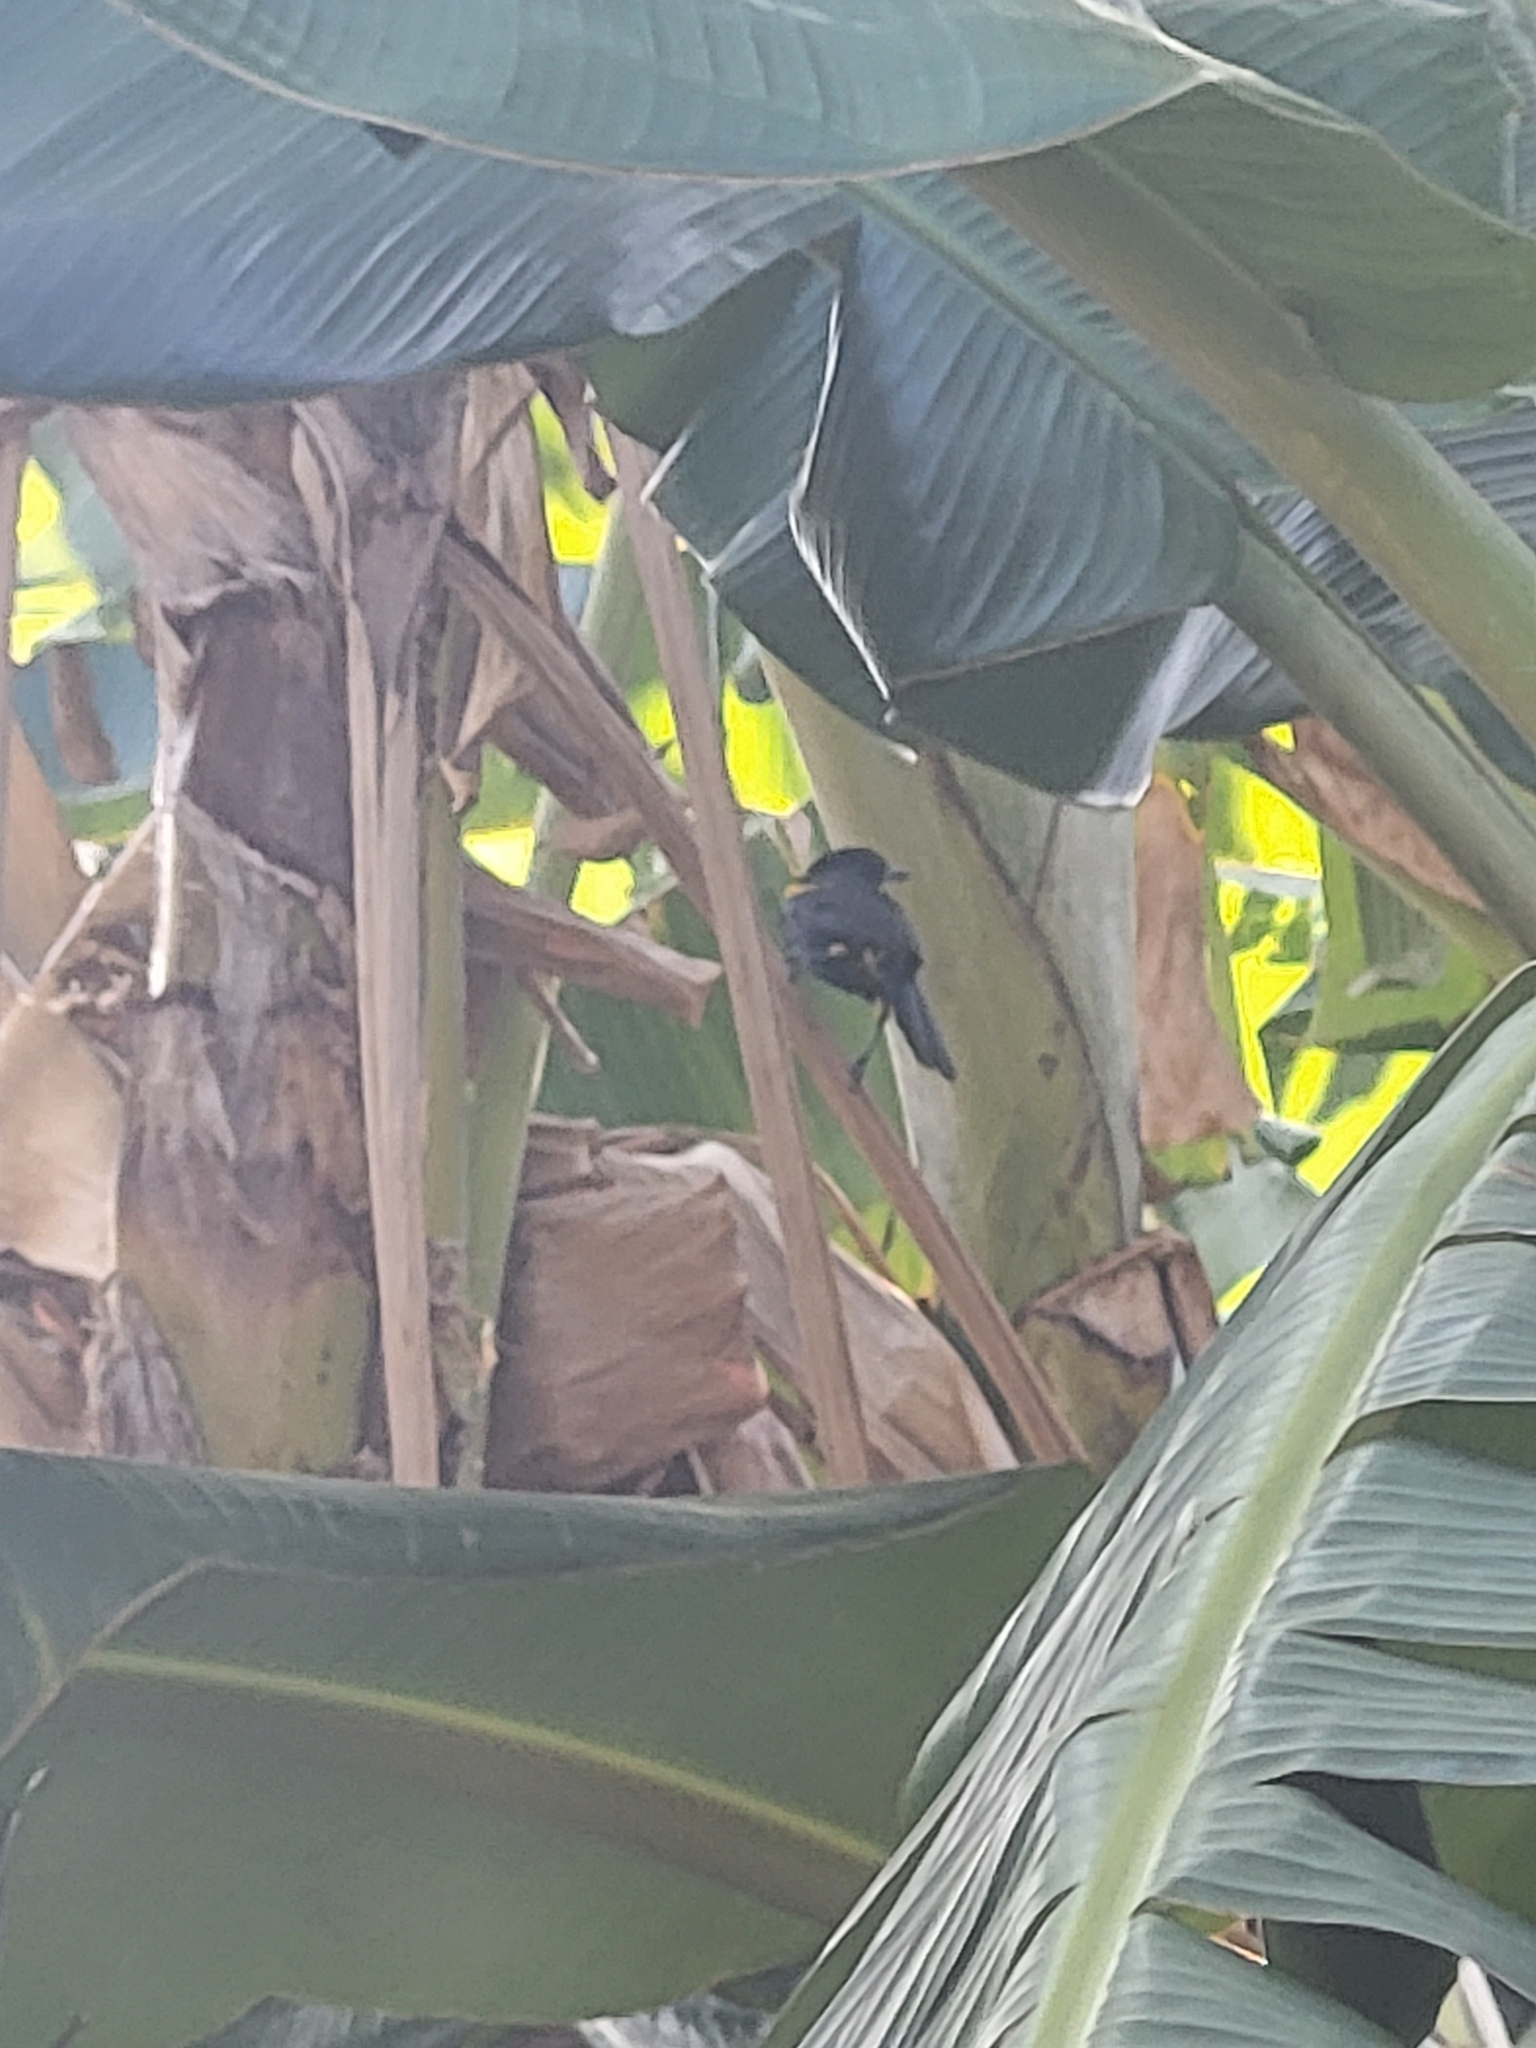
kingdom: Animalia
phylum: Chordata
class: Aves
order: Passeriformes
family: Icteridae
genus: Icterus
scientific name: Icterus dominicensis
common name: Hispaniolan oriole
